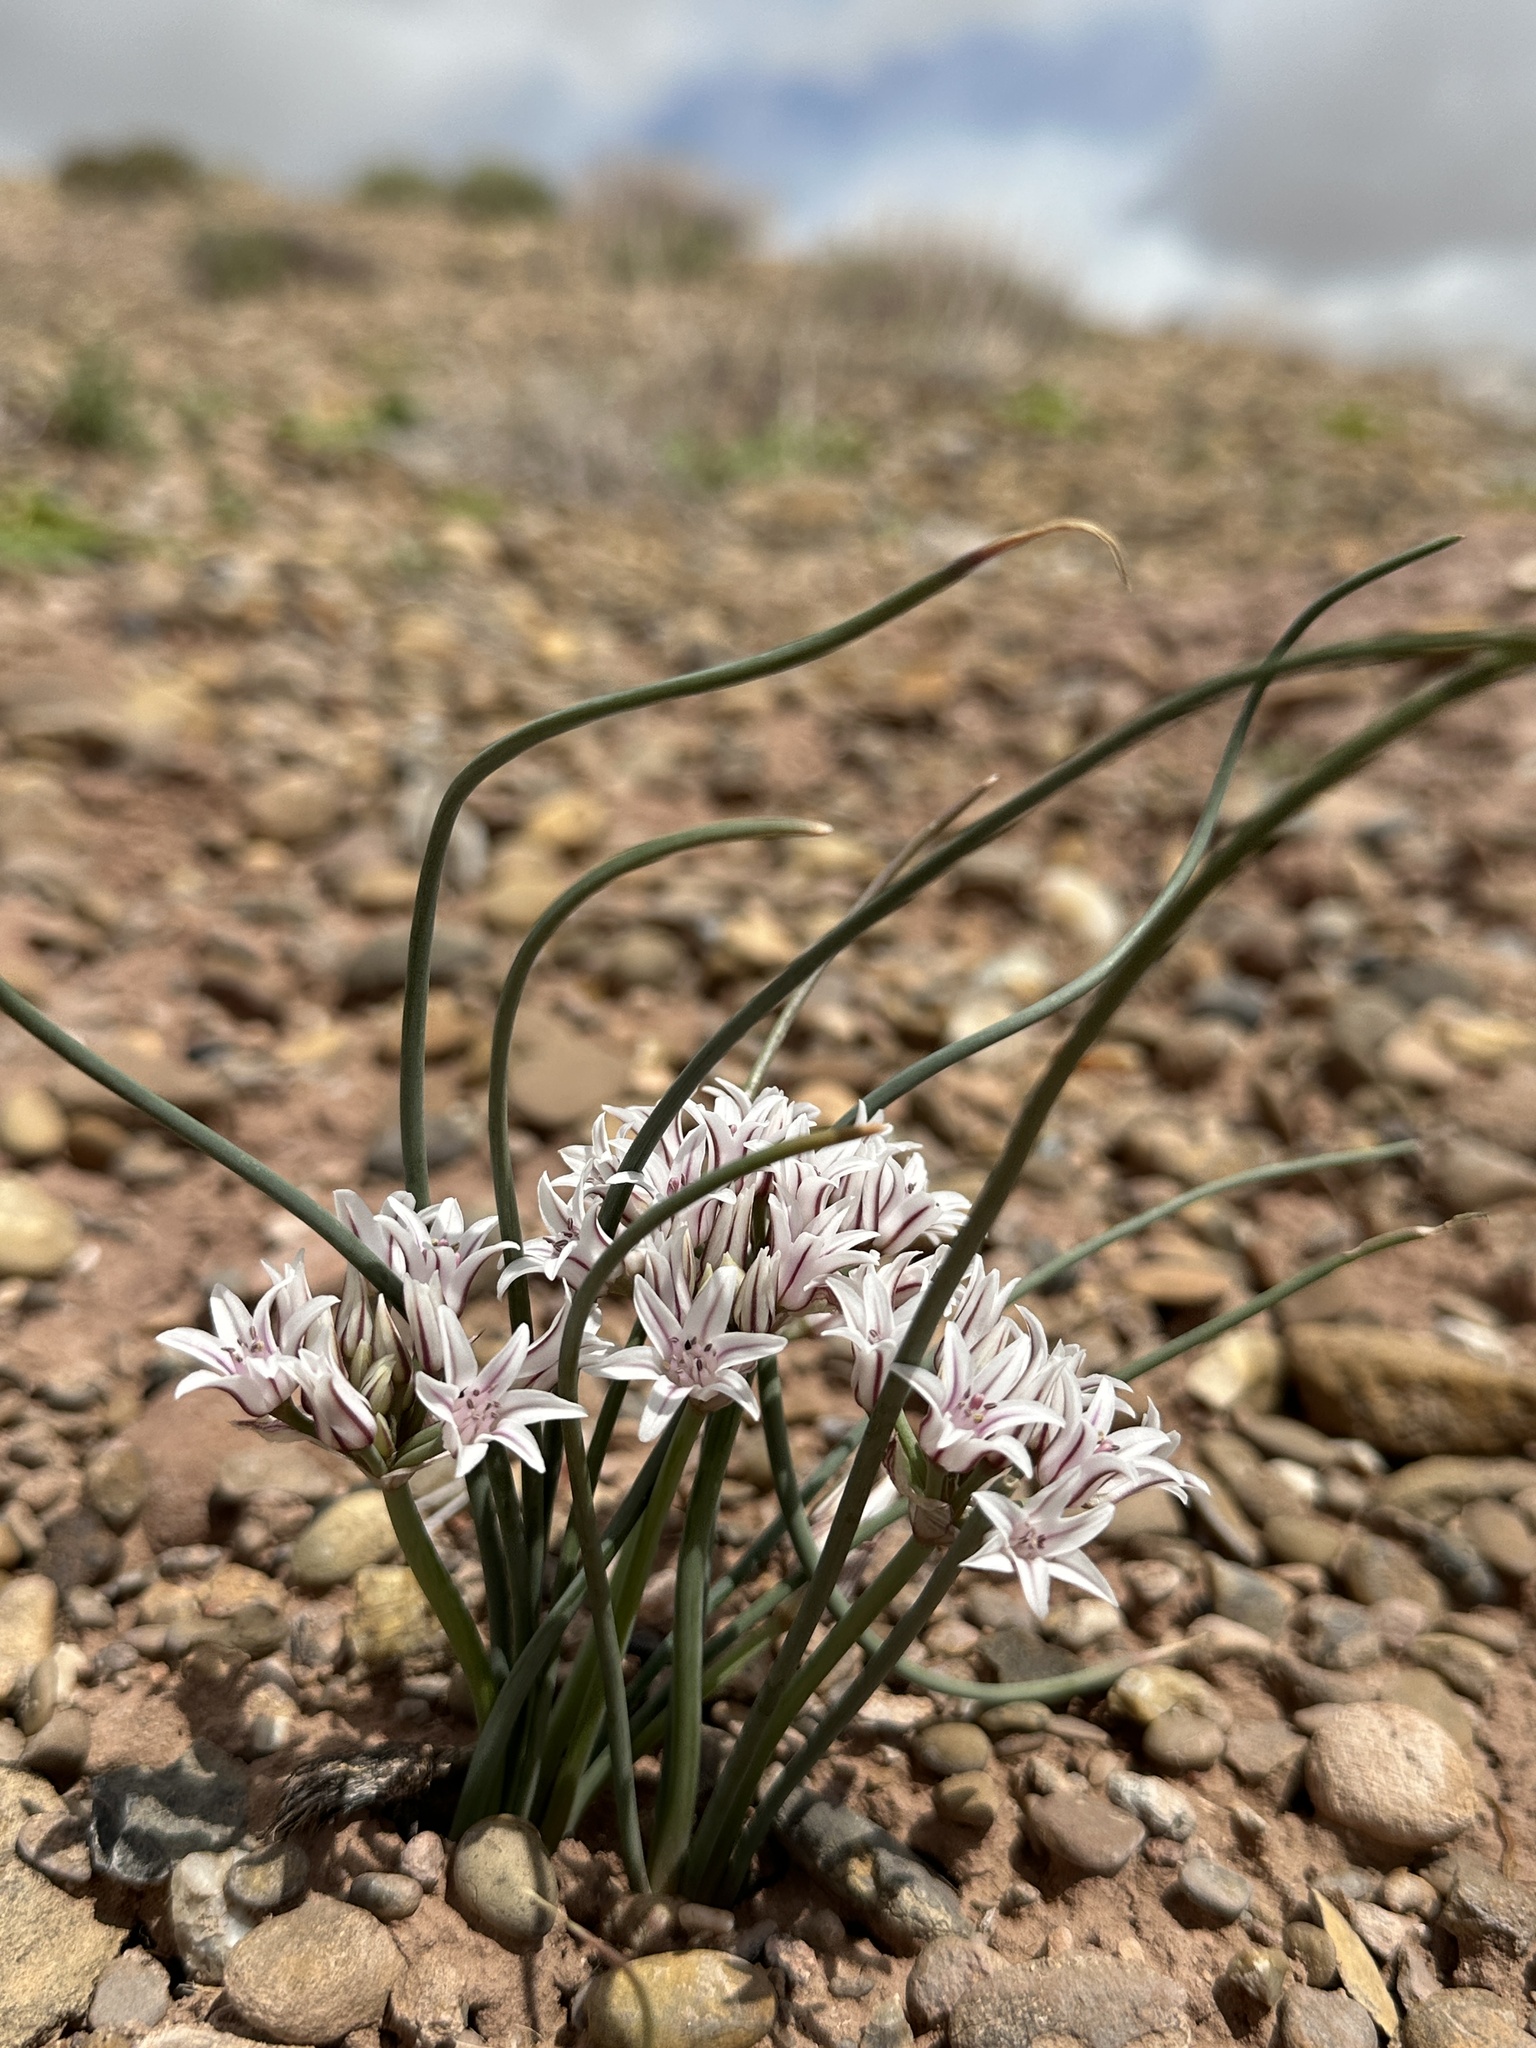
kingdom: Plantae
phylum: Tracheophyta
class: Liliopsida
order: Asparagales
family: Amaryllidaceae
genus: Allium
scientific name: Allium macropetalum
